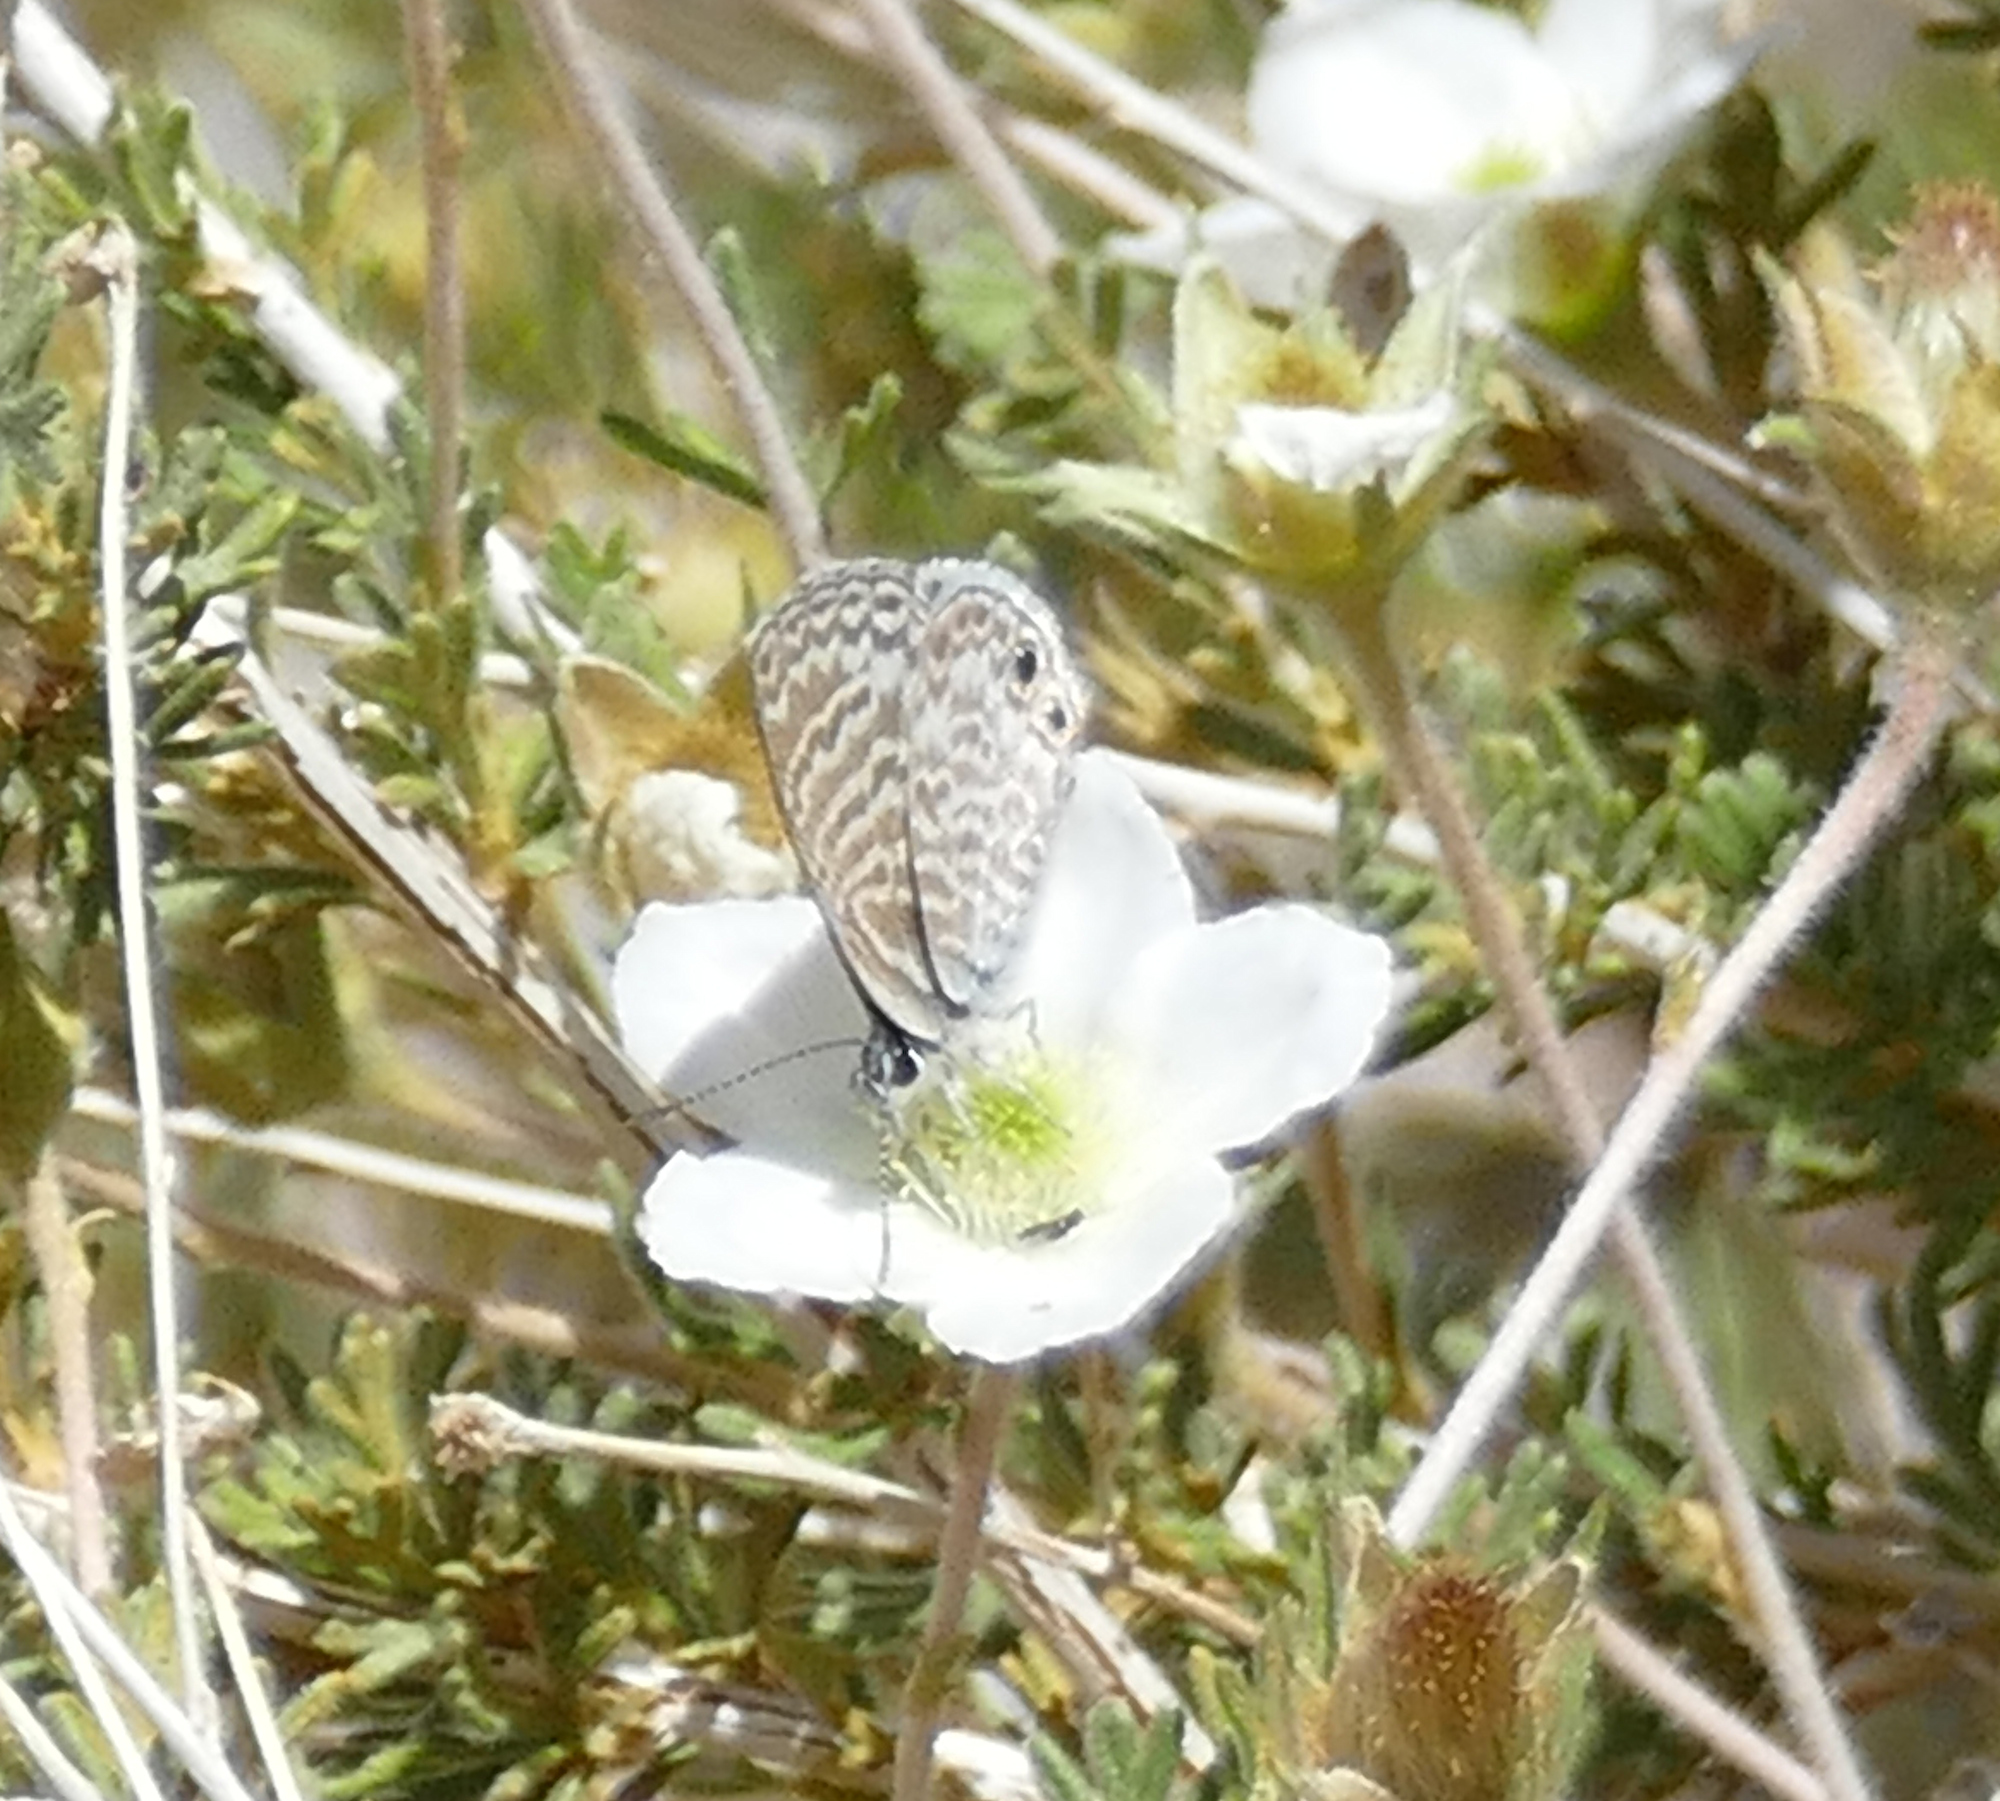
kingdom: Animalia
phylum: Arthropoda
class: Insecta
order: Lepidoptera
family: Lycaenidae
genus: Leptotes
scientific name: Leptotes marina
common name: Marine blue
